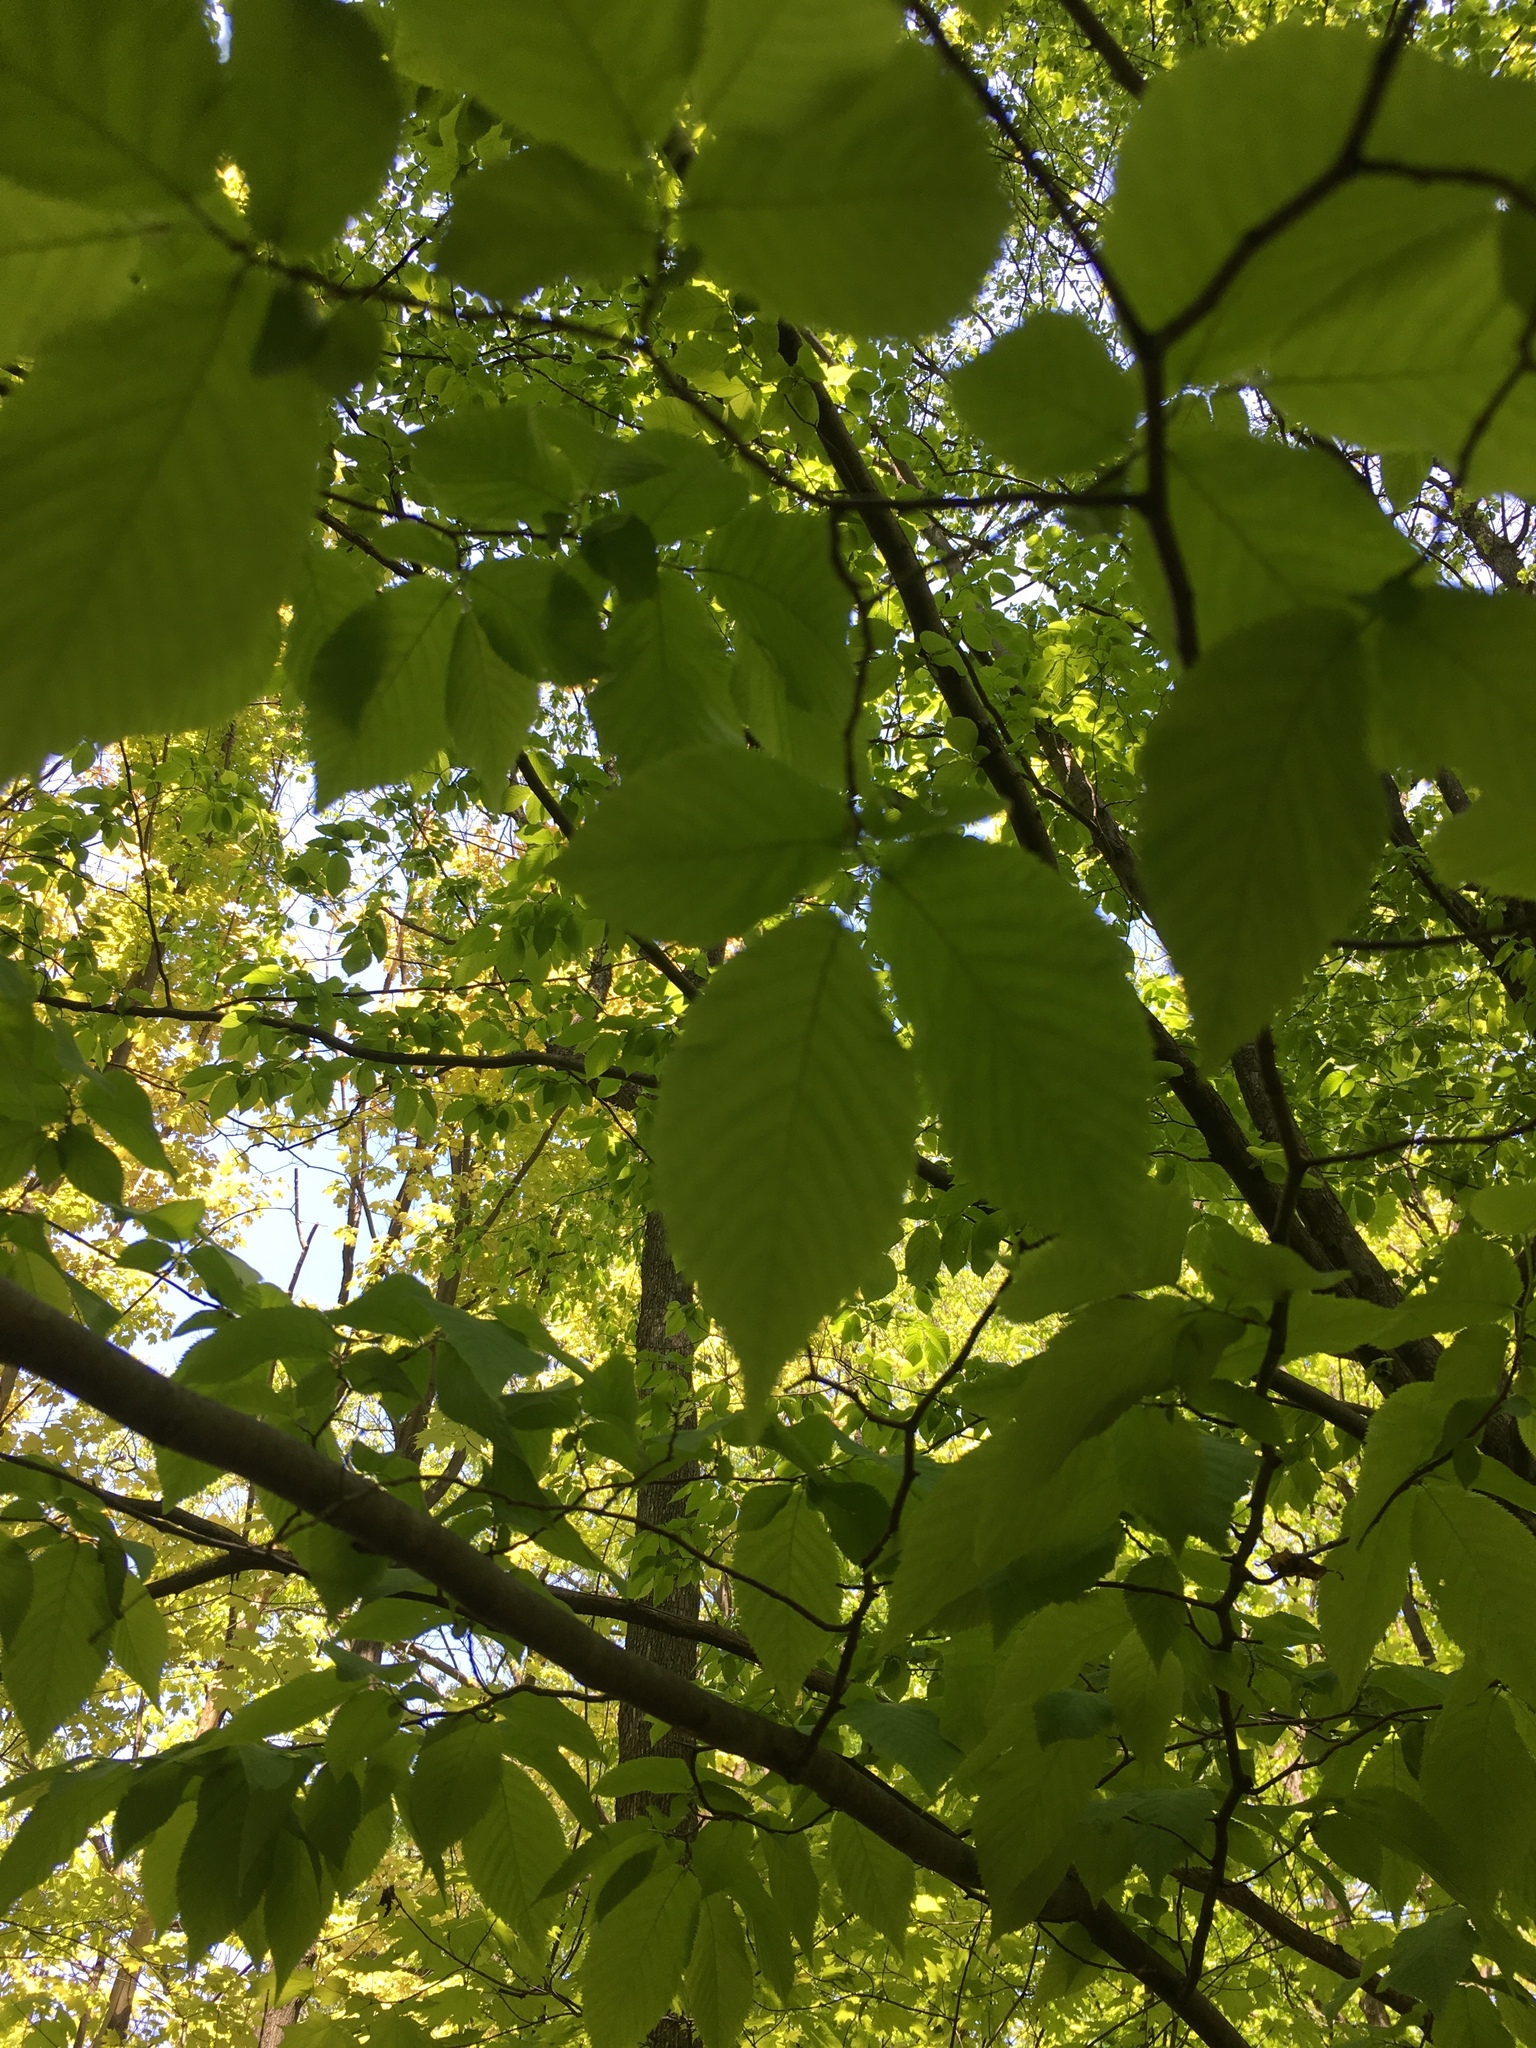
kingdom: Plantae
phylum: Tracheophyta
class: Magnoliopsida
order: Fagales
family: Betulaceae
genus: Ostrya
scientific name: Ostrya virginiana
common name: Ironwood
